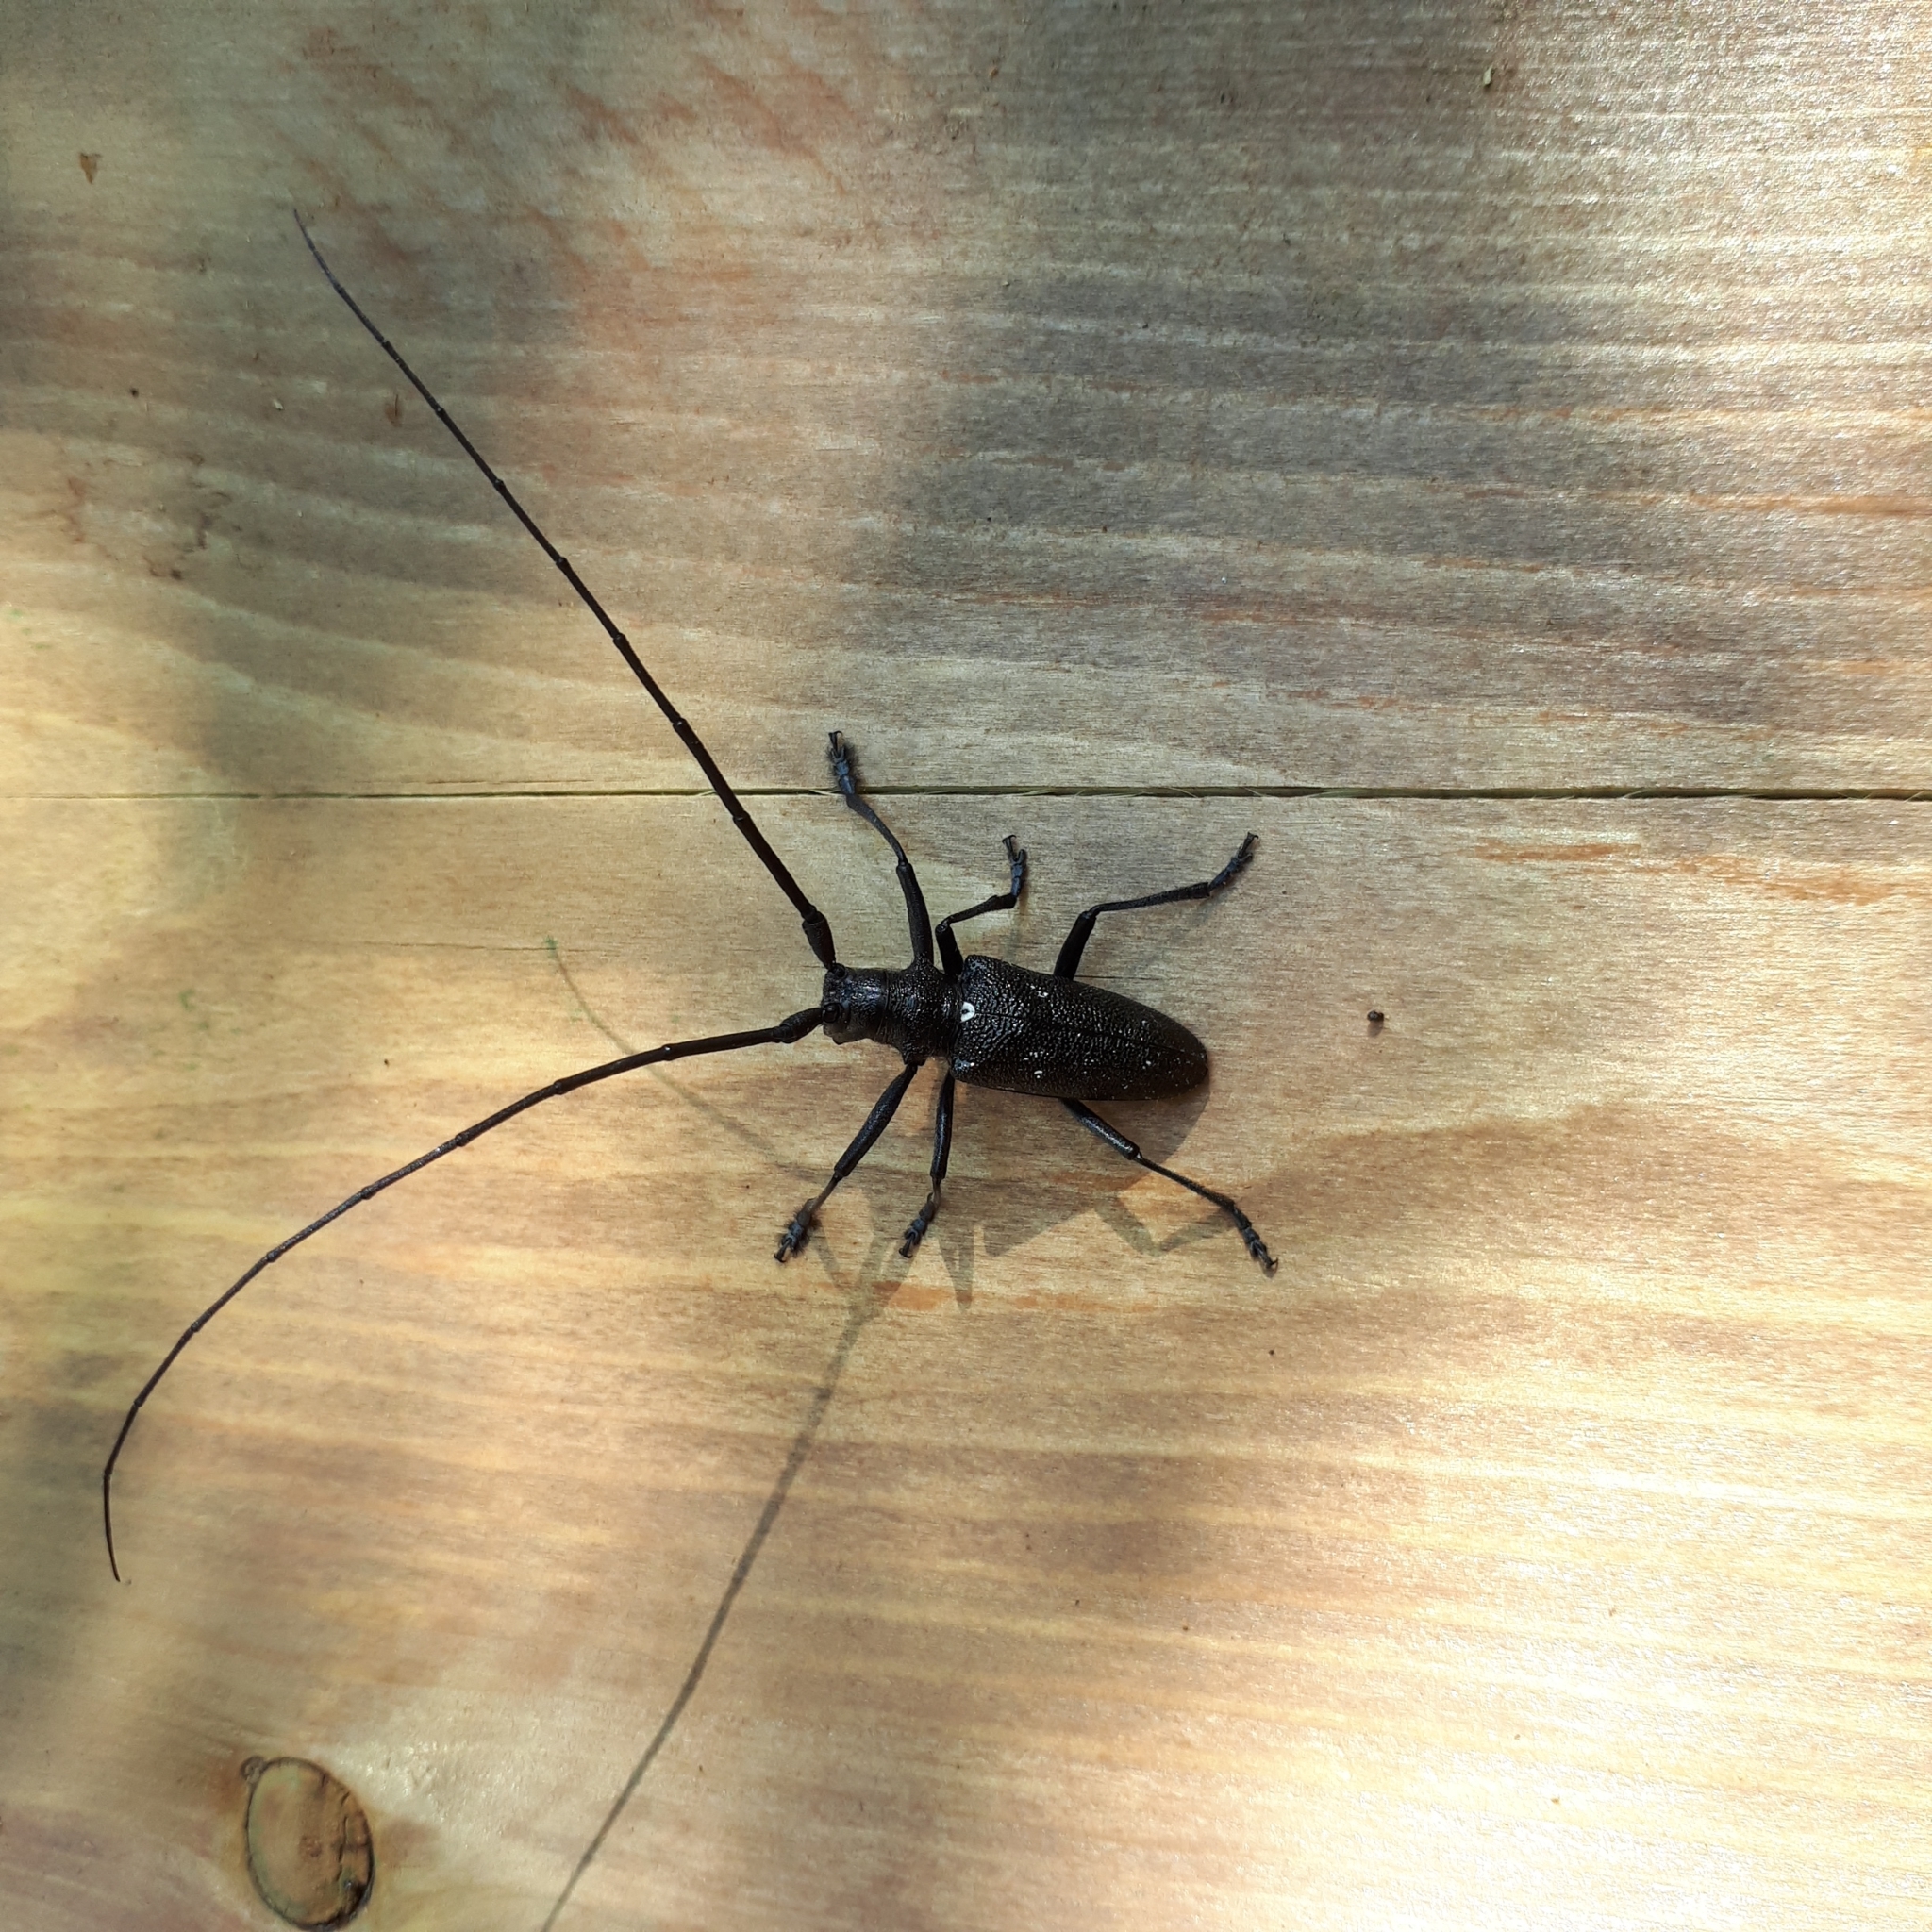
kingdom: Animalia
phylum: Arthropoda
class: Insecta
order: Coleoptera
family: Cerambycidae
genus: Monochamus
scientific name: Monochamus scutellatus
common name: White-spotted sawyer beetle
